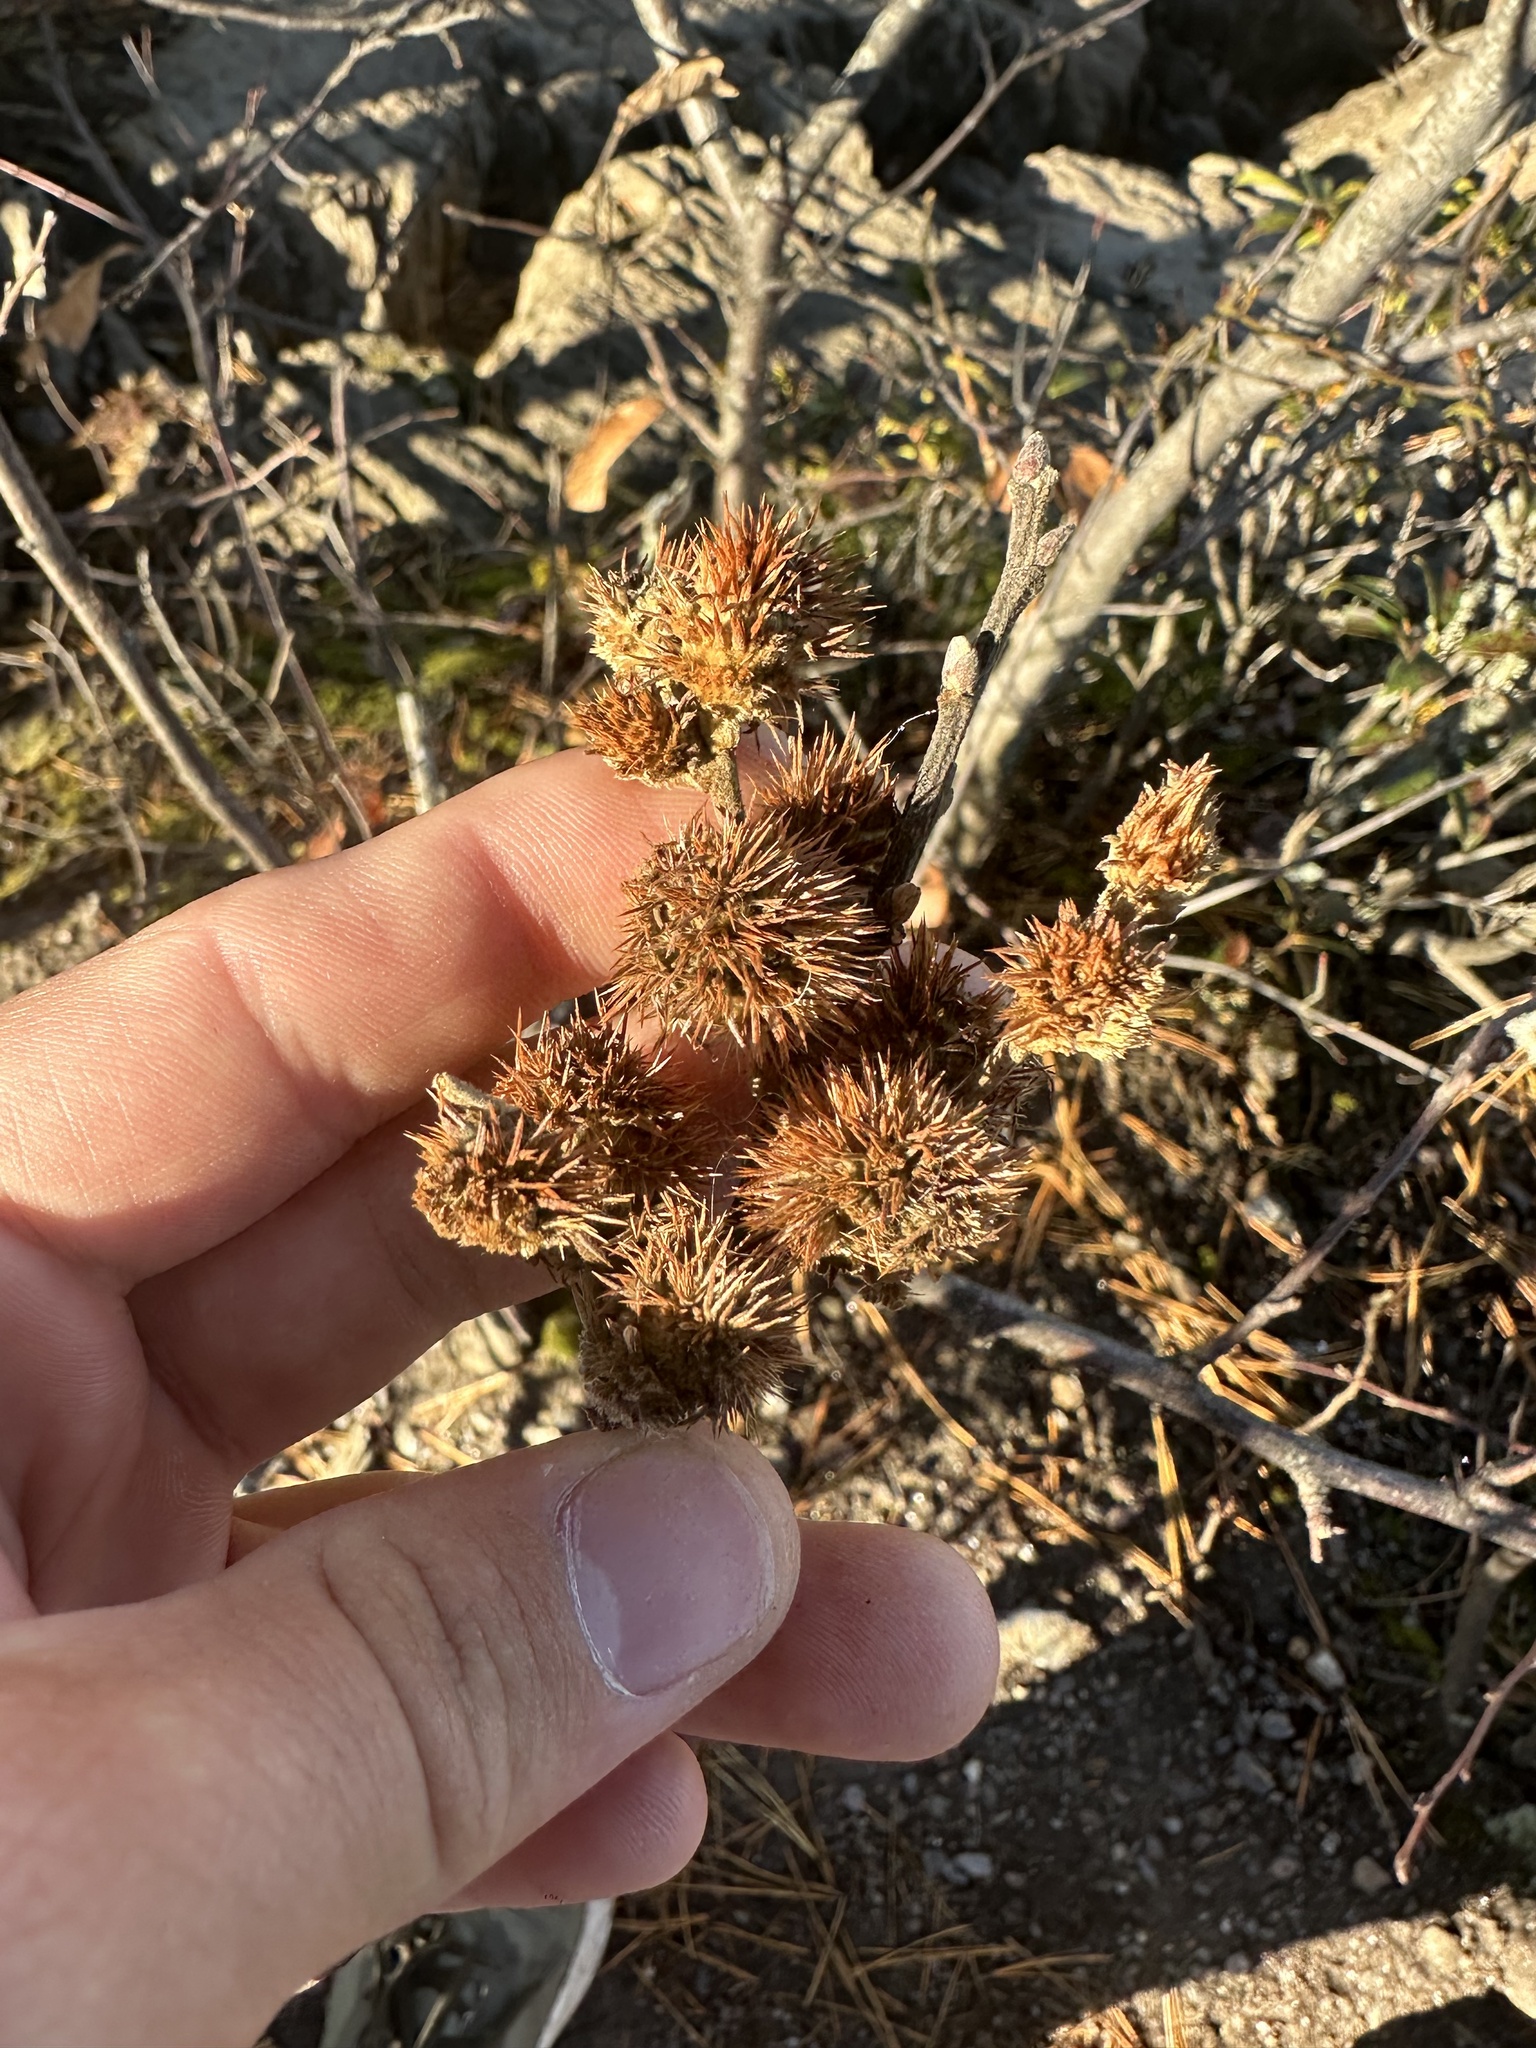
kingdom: Plantae
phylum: Tracheophyta
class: Magnoliopsida
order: Fagales
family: Fagaceae
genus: Castanea
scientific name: Castanea pumila
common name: Chinkapin
